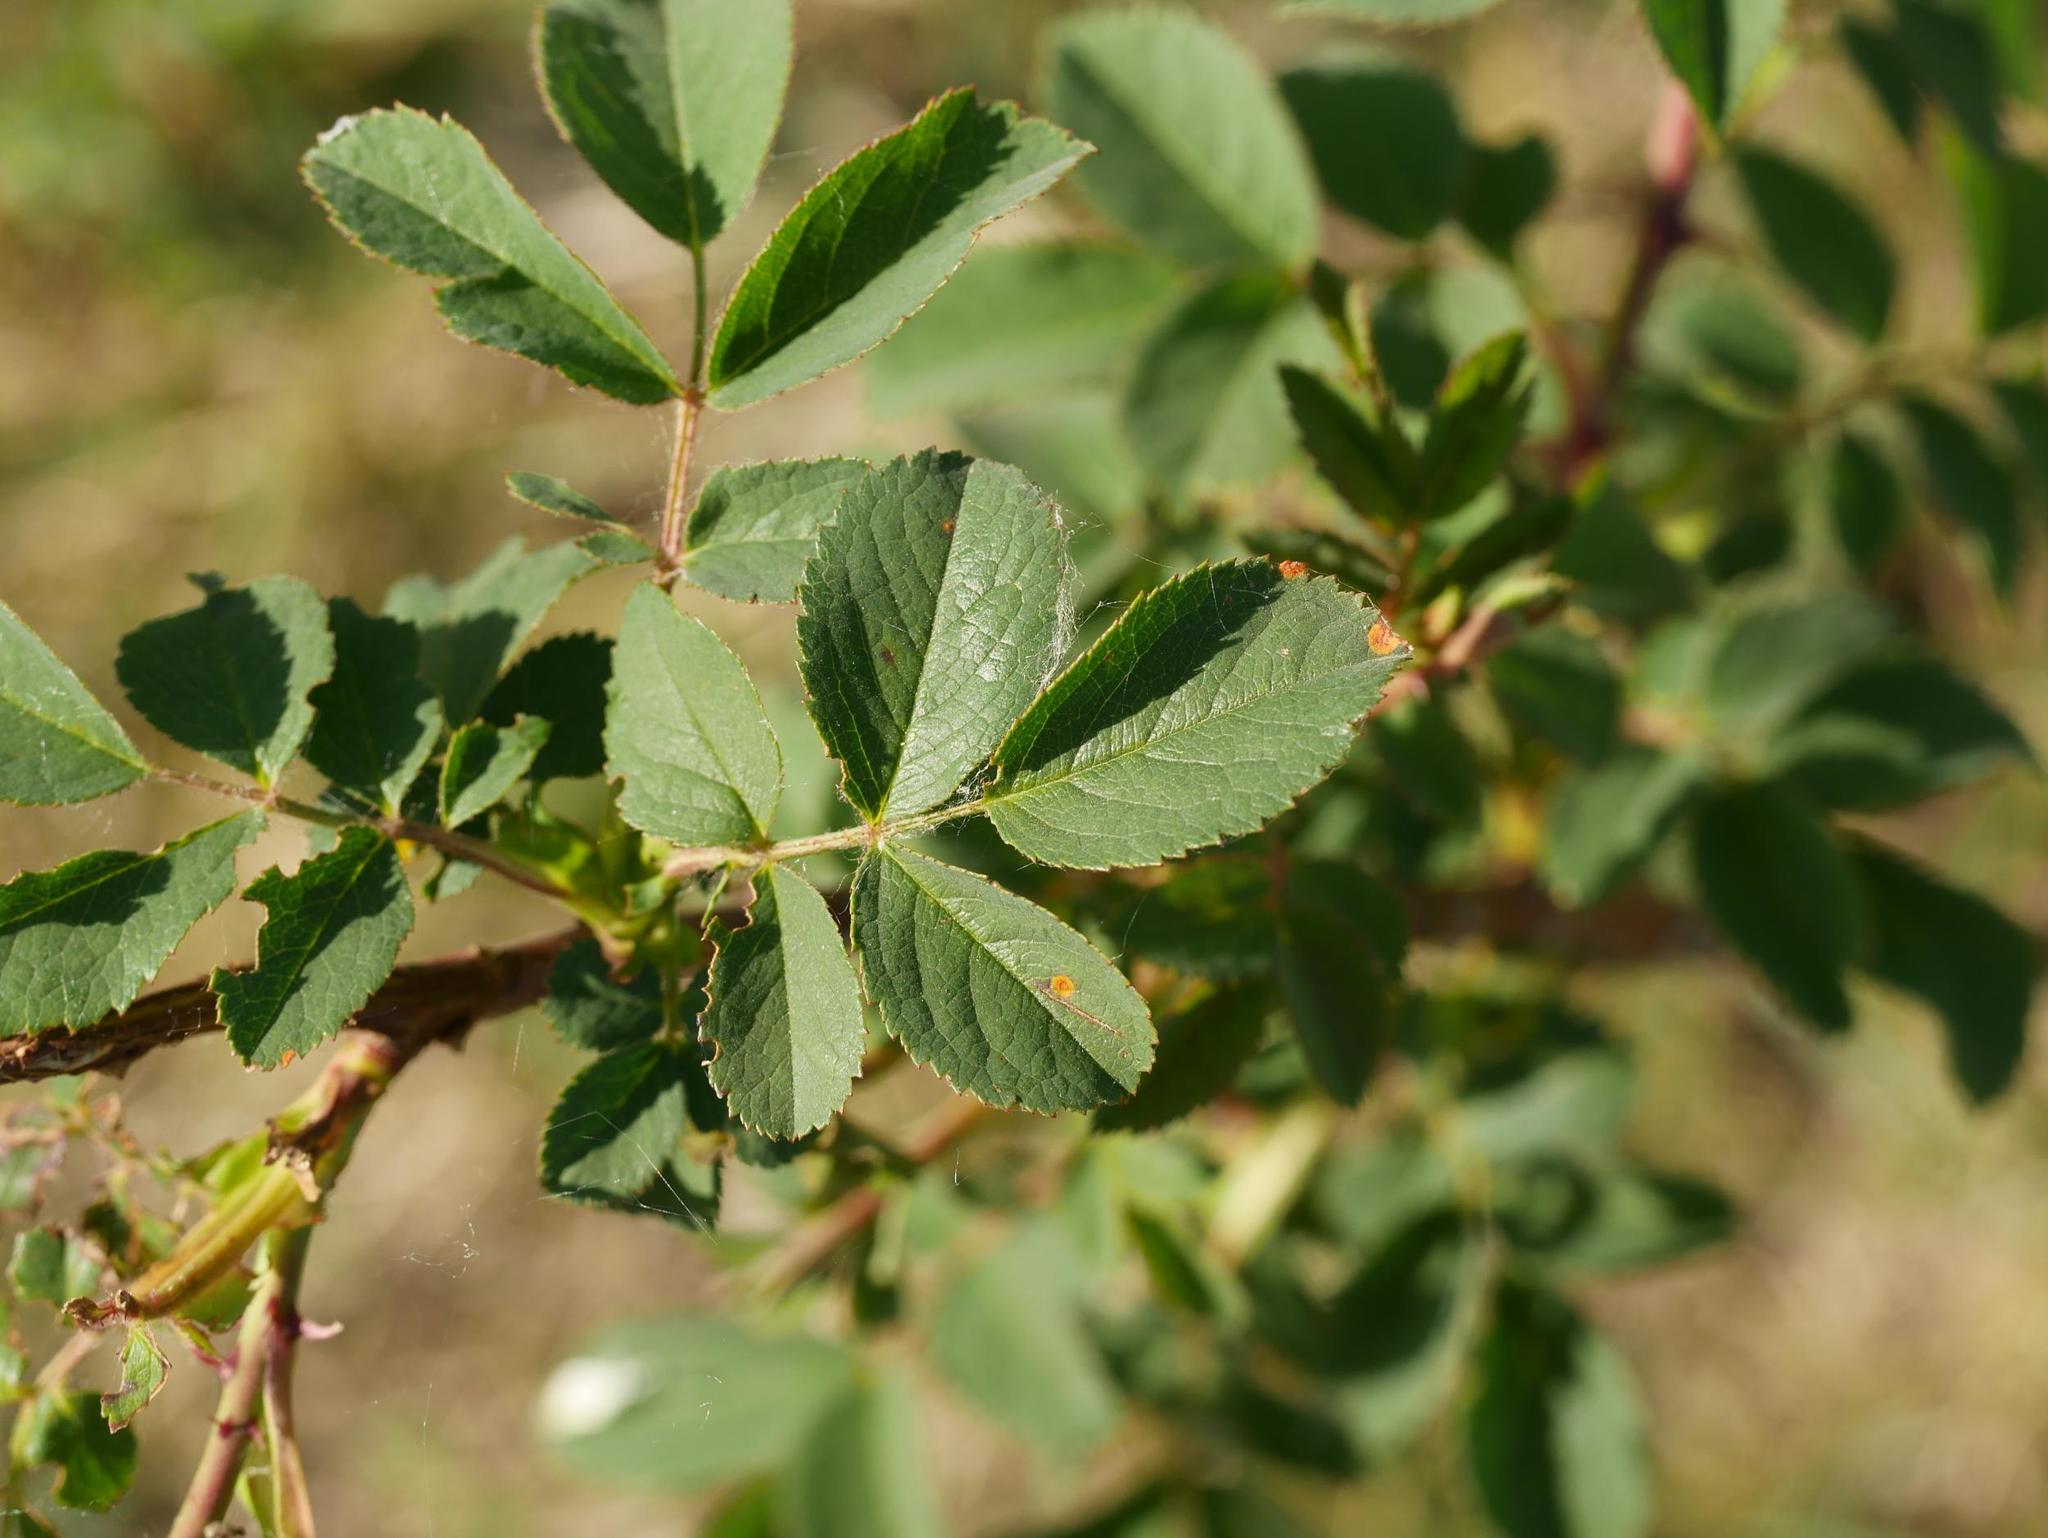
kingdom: Plantae
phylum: Tracheophyta
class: Magnoliopsida
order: Rosales
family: Rosaceae
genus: Rosa
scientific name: Rosa canina
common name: Dog rose
